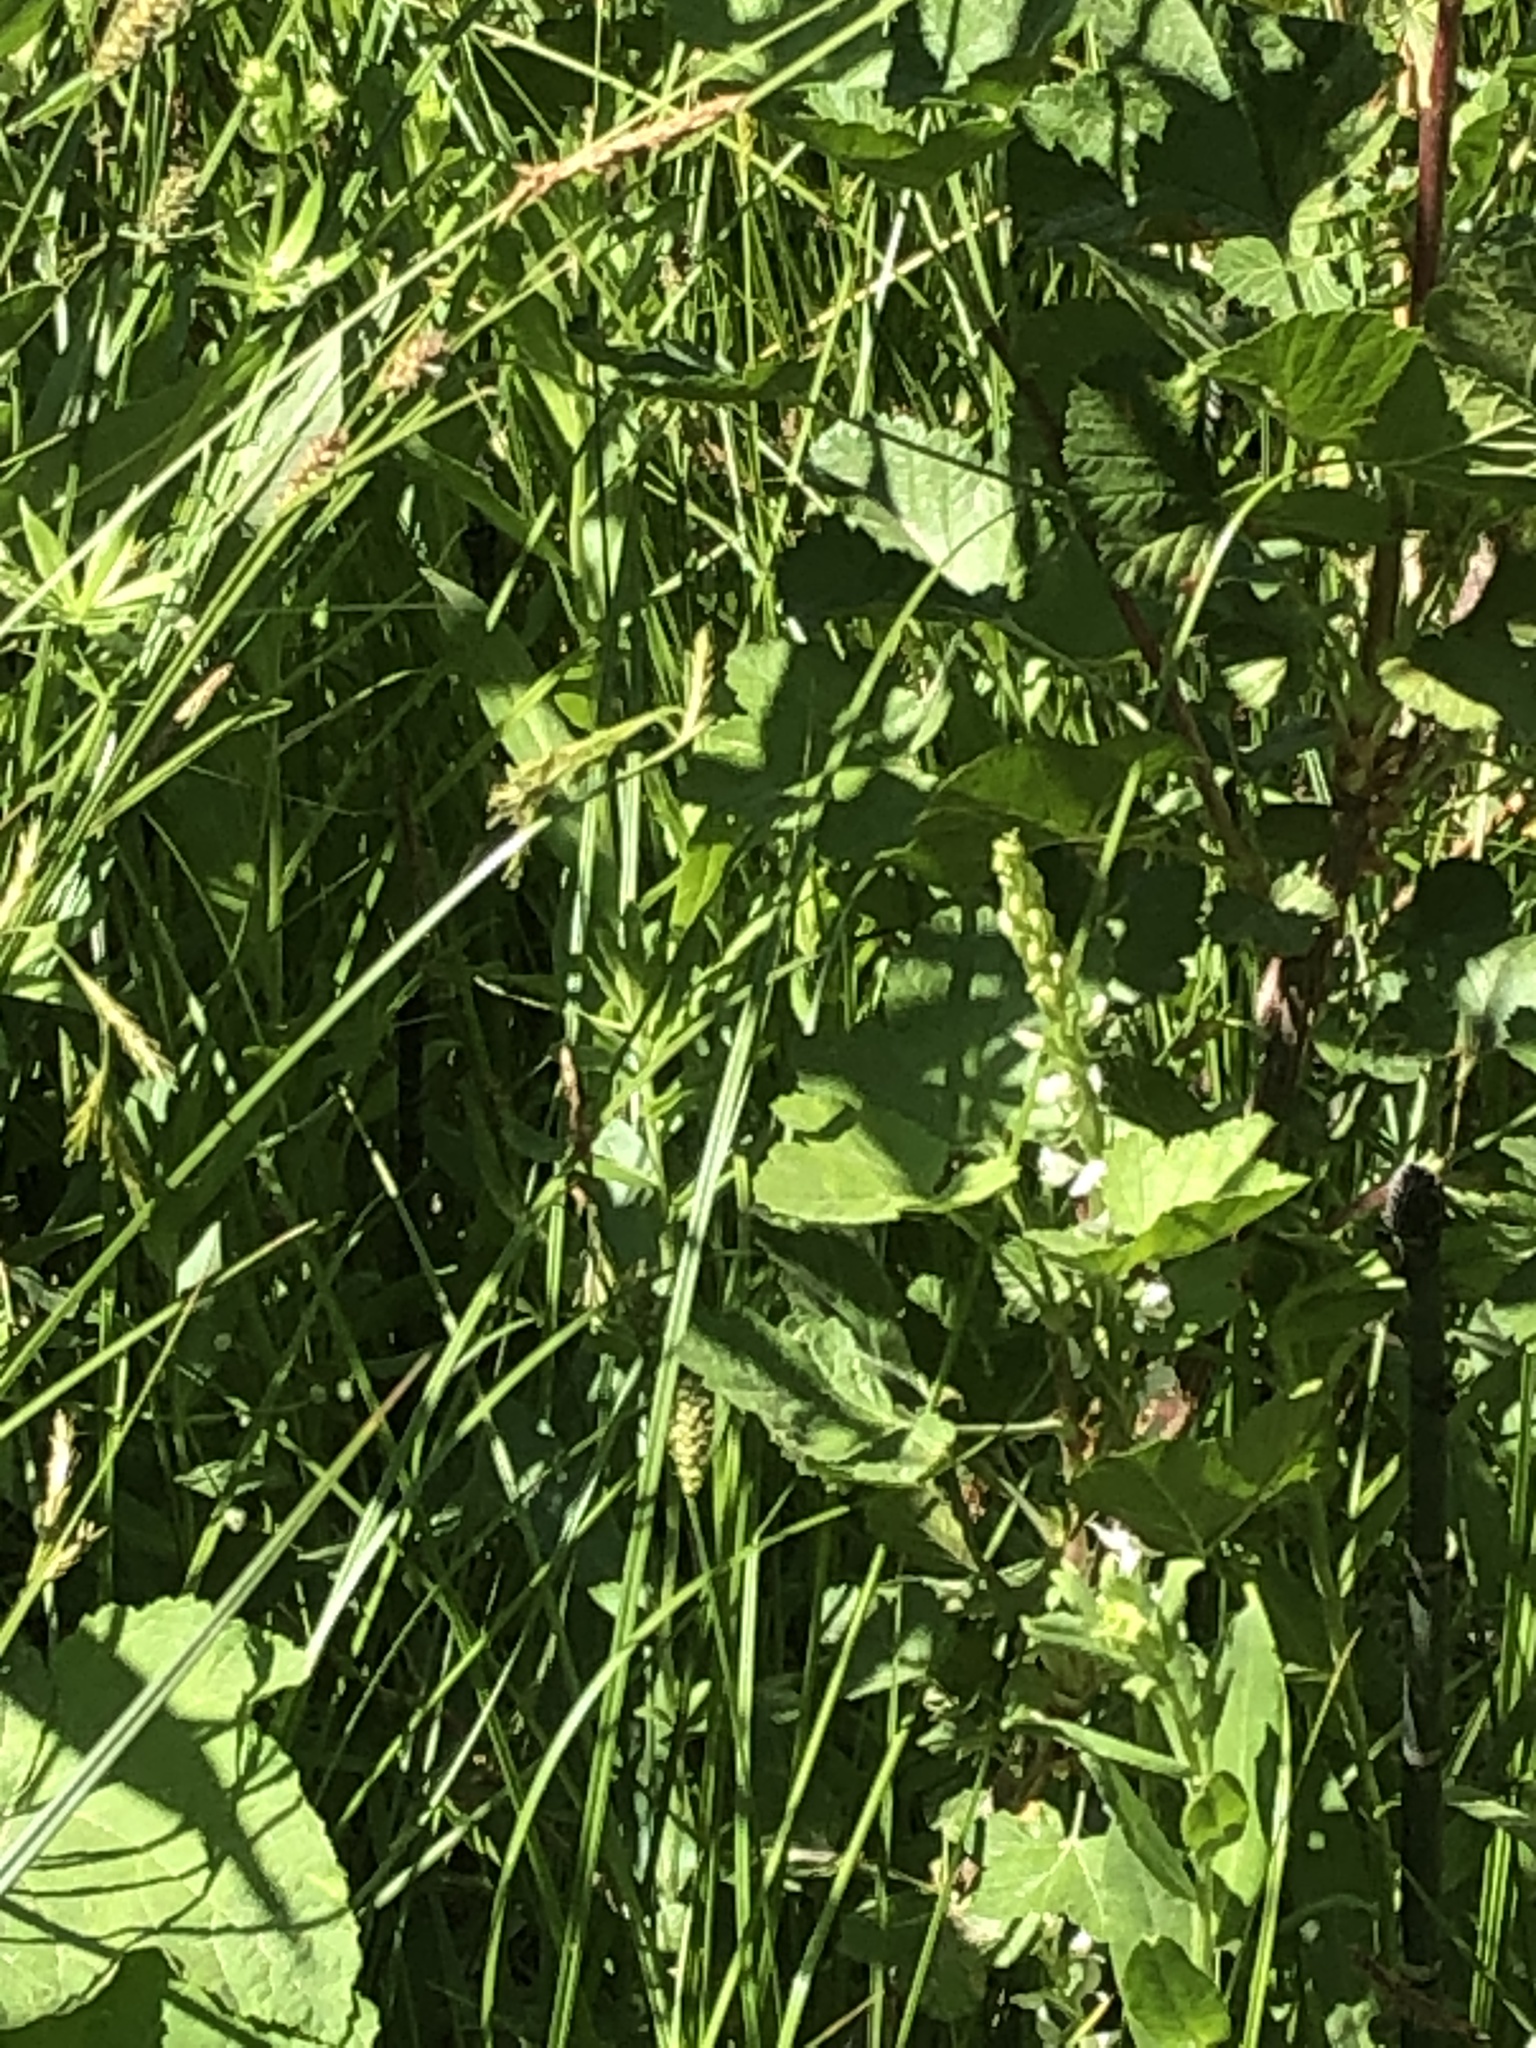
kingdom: Plantae
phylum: Tracheophyta
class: Liliopsida
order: Asparagales
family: Orchidaceae
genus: Platanthera
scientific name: Platanthera dilatata
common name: Bog candles
